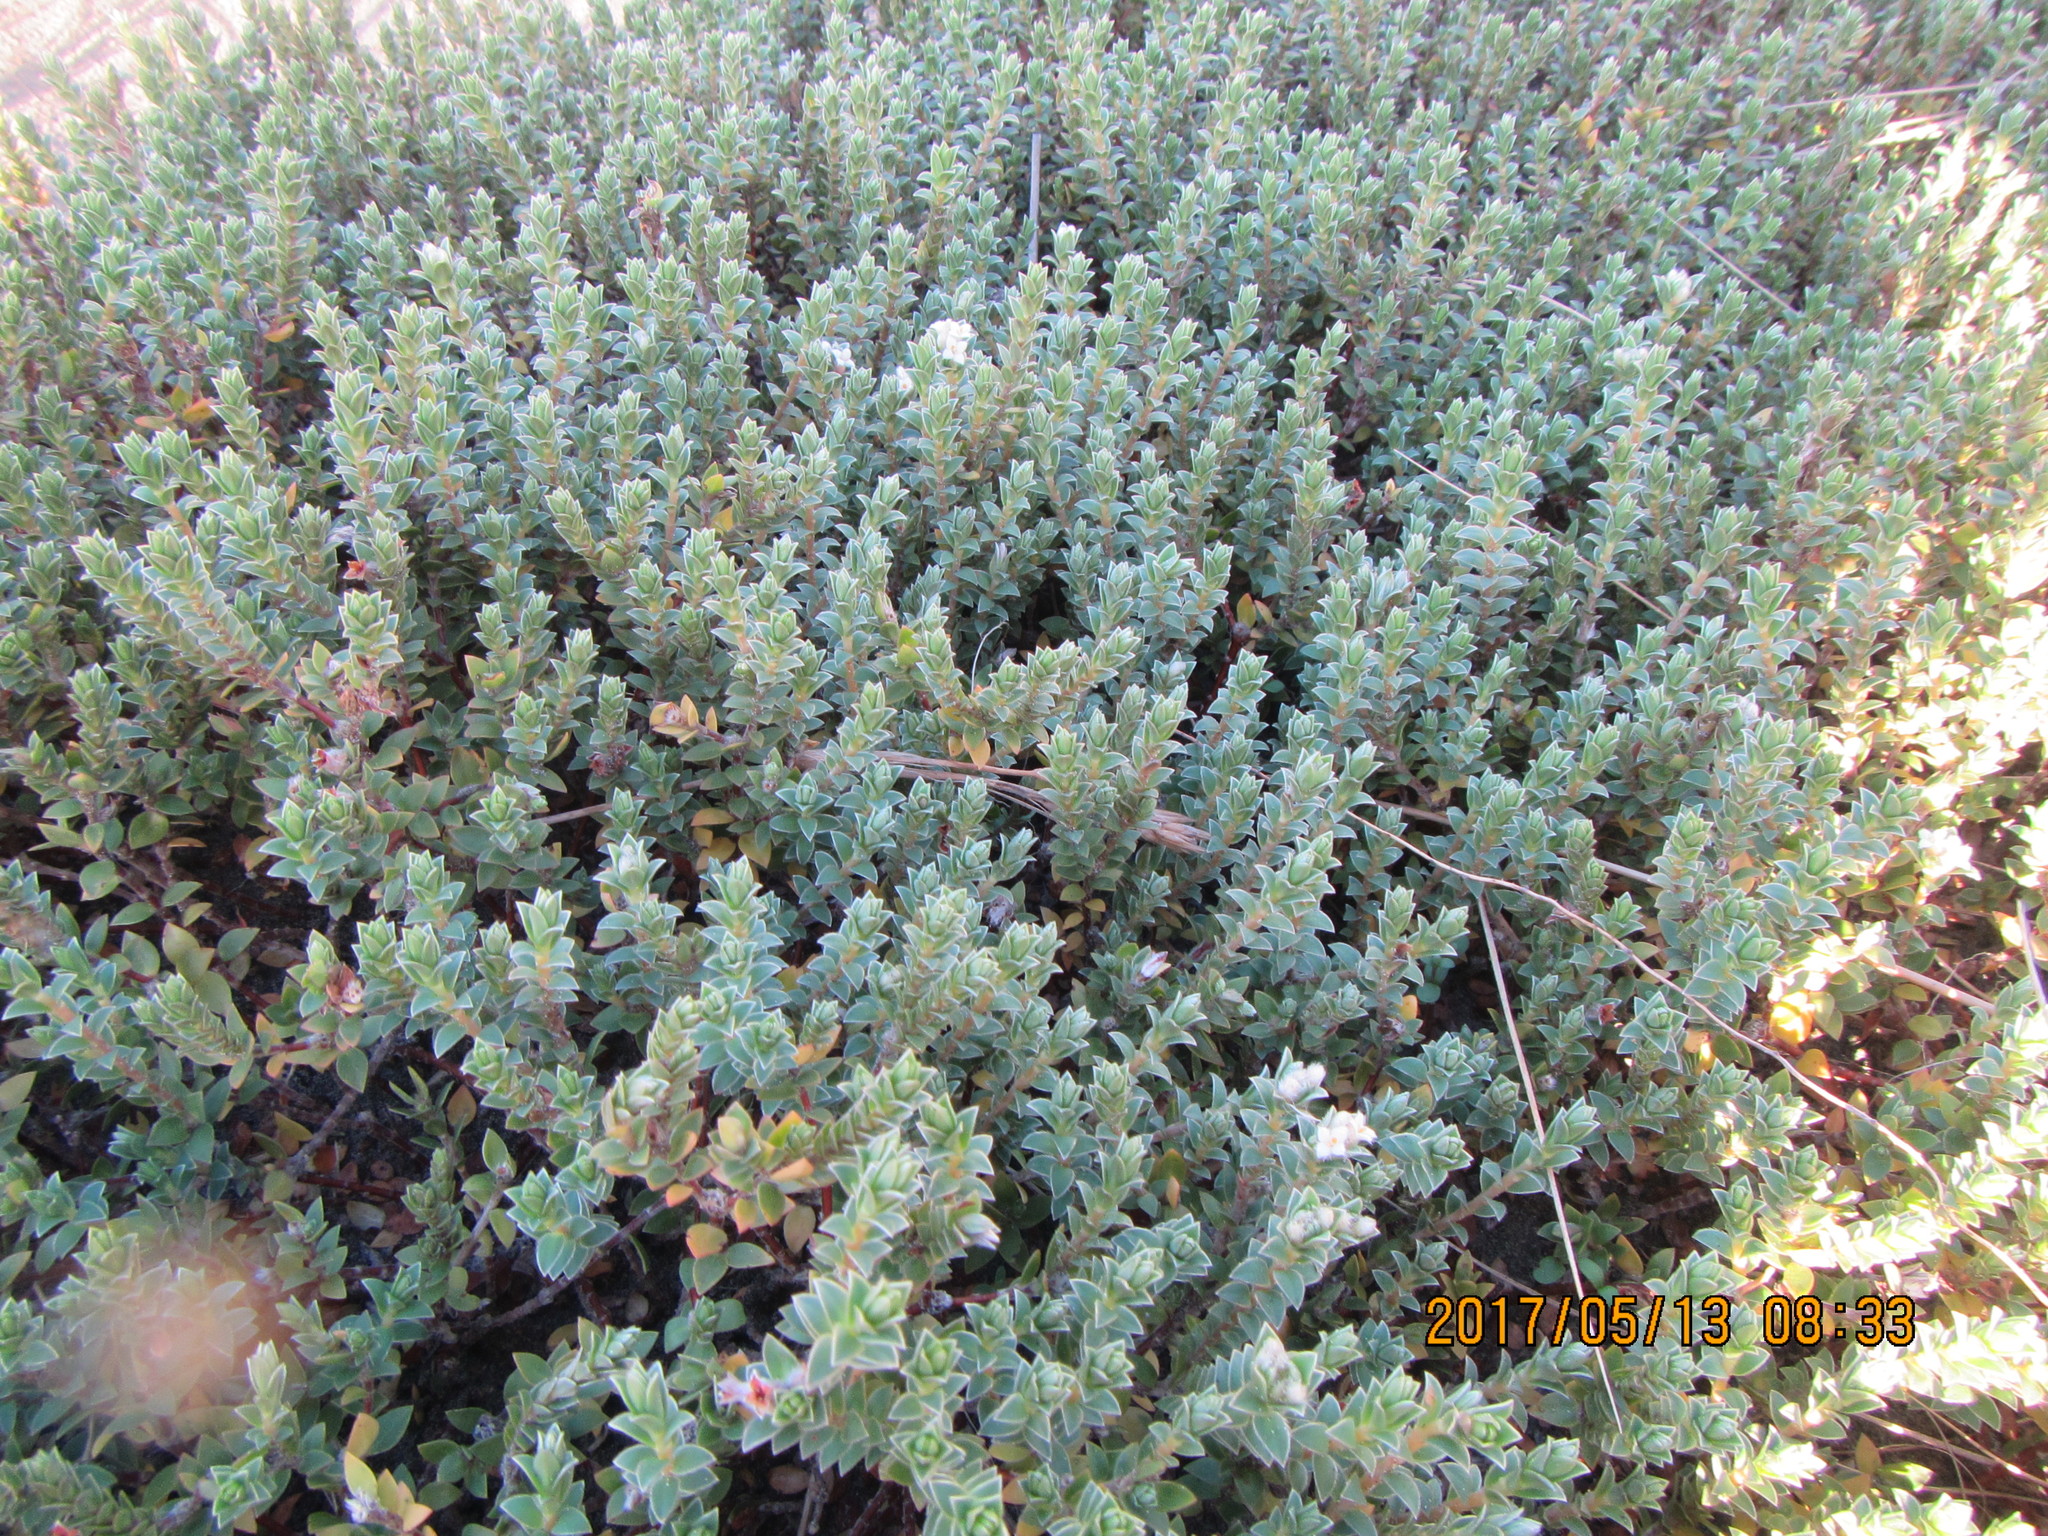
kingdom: Plantae
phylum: Tracheophyta
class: Magnoliopsida
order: Malvales
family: Thymelaeaceae
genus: Pimelea
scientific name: Pimelea villosa
